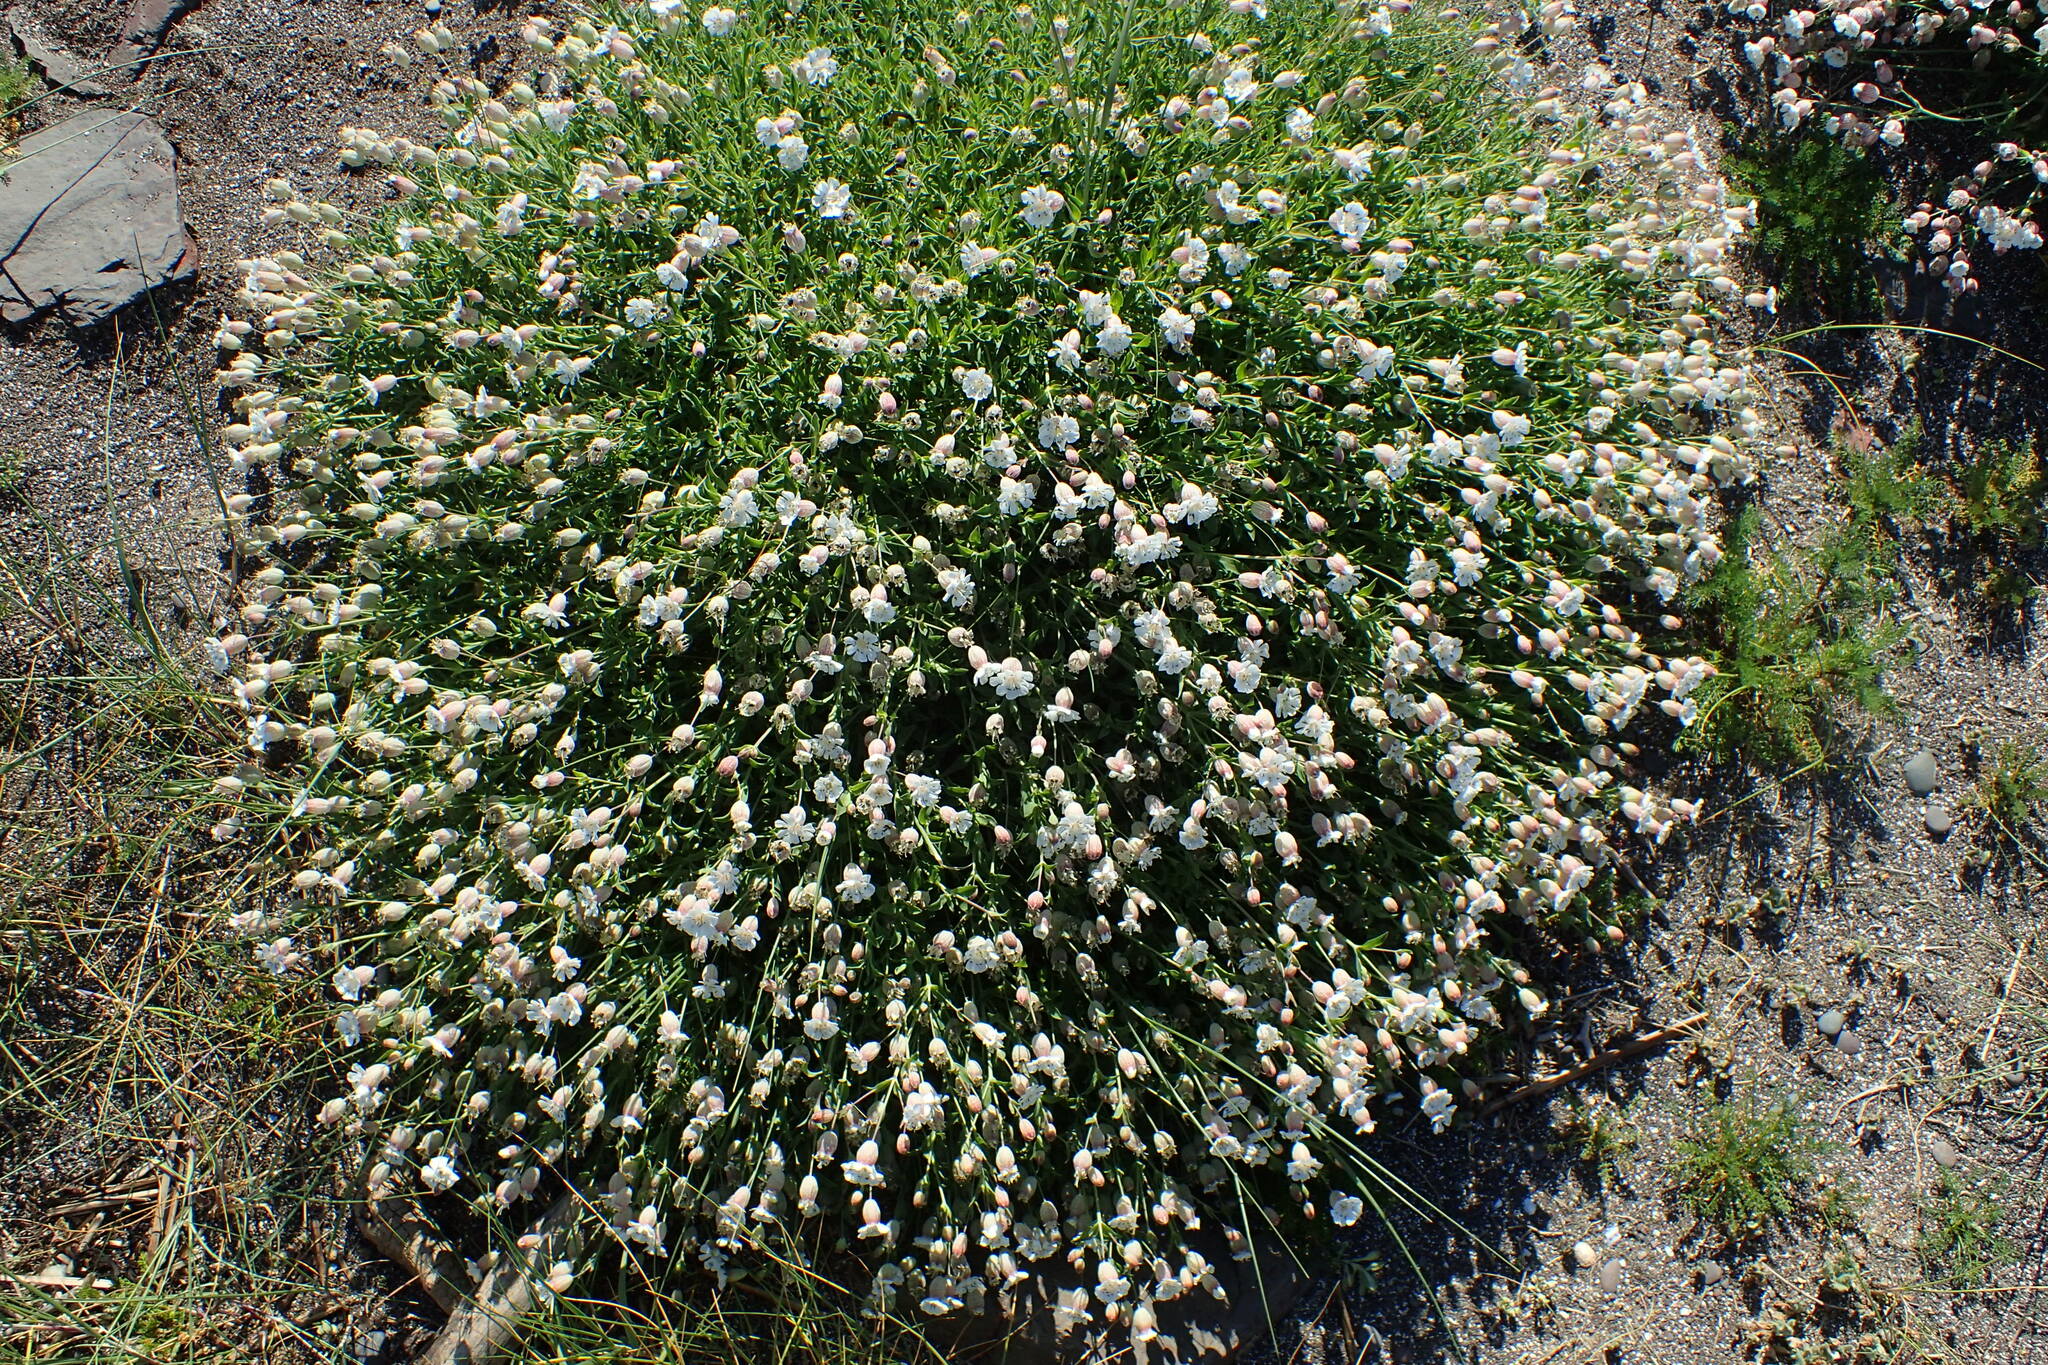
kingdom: Plantae
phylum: Tracheophyta
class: Magnoliopsida
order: Caryophyllales
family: Caryophyllaceae
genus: Silene
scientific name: Silene uniflora
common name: Sea campion
